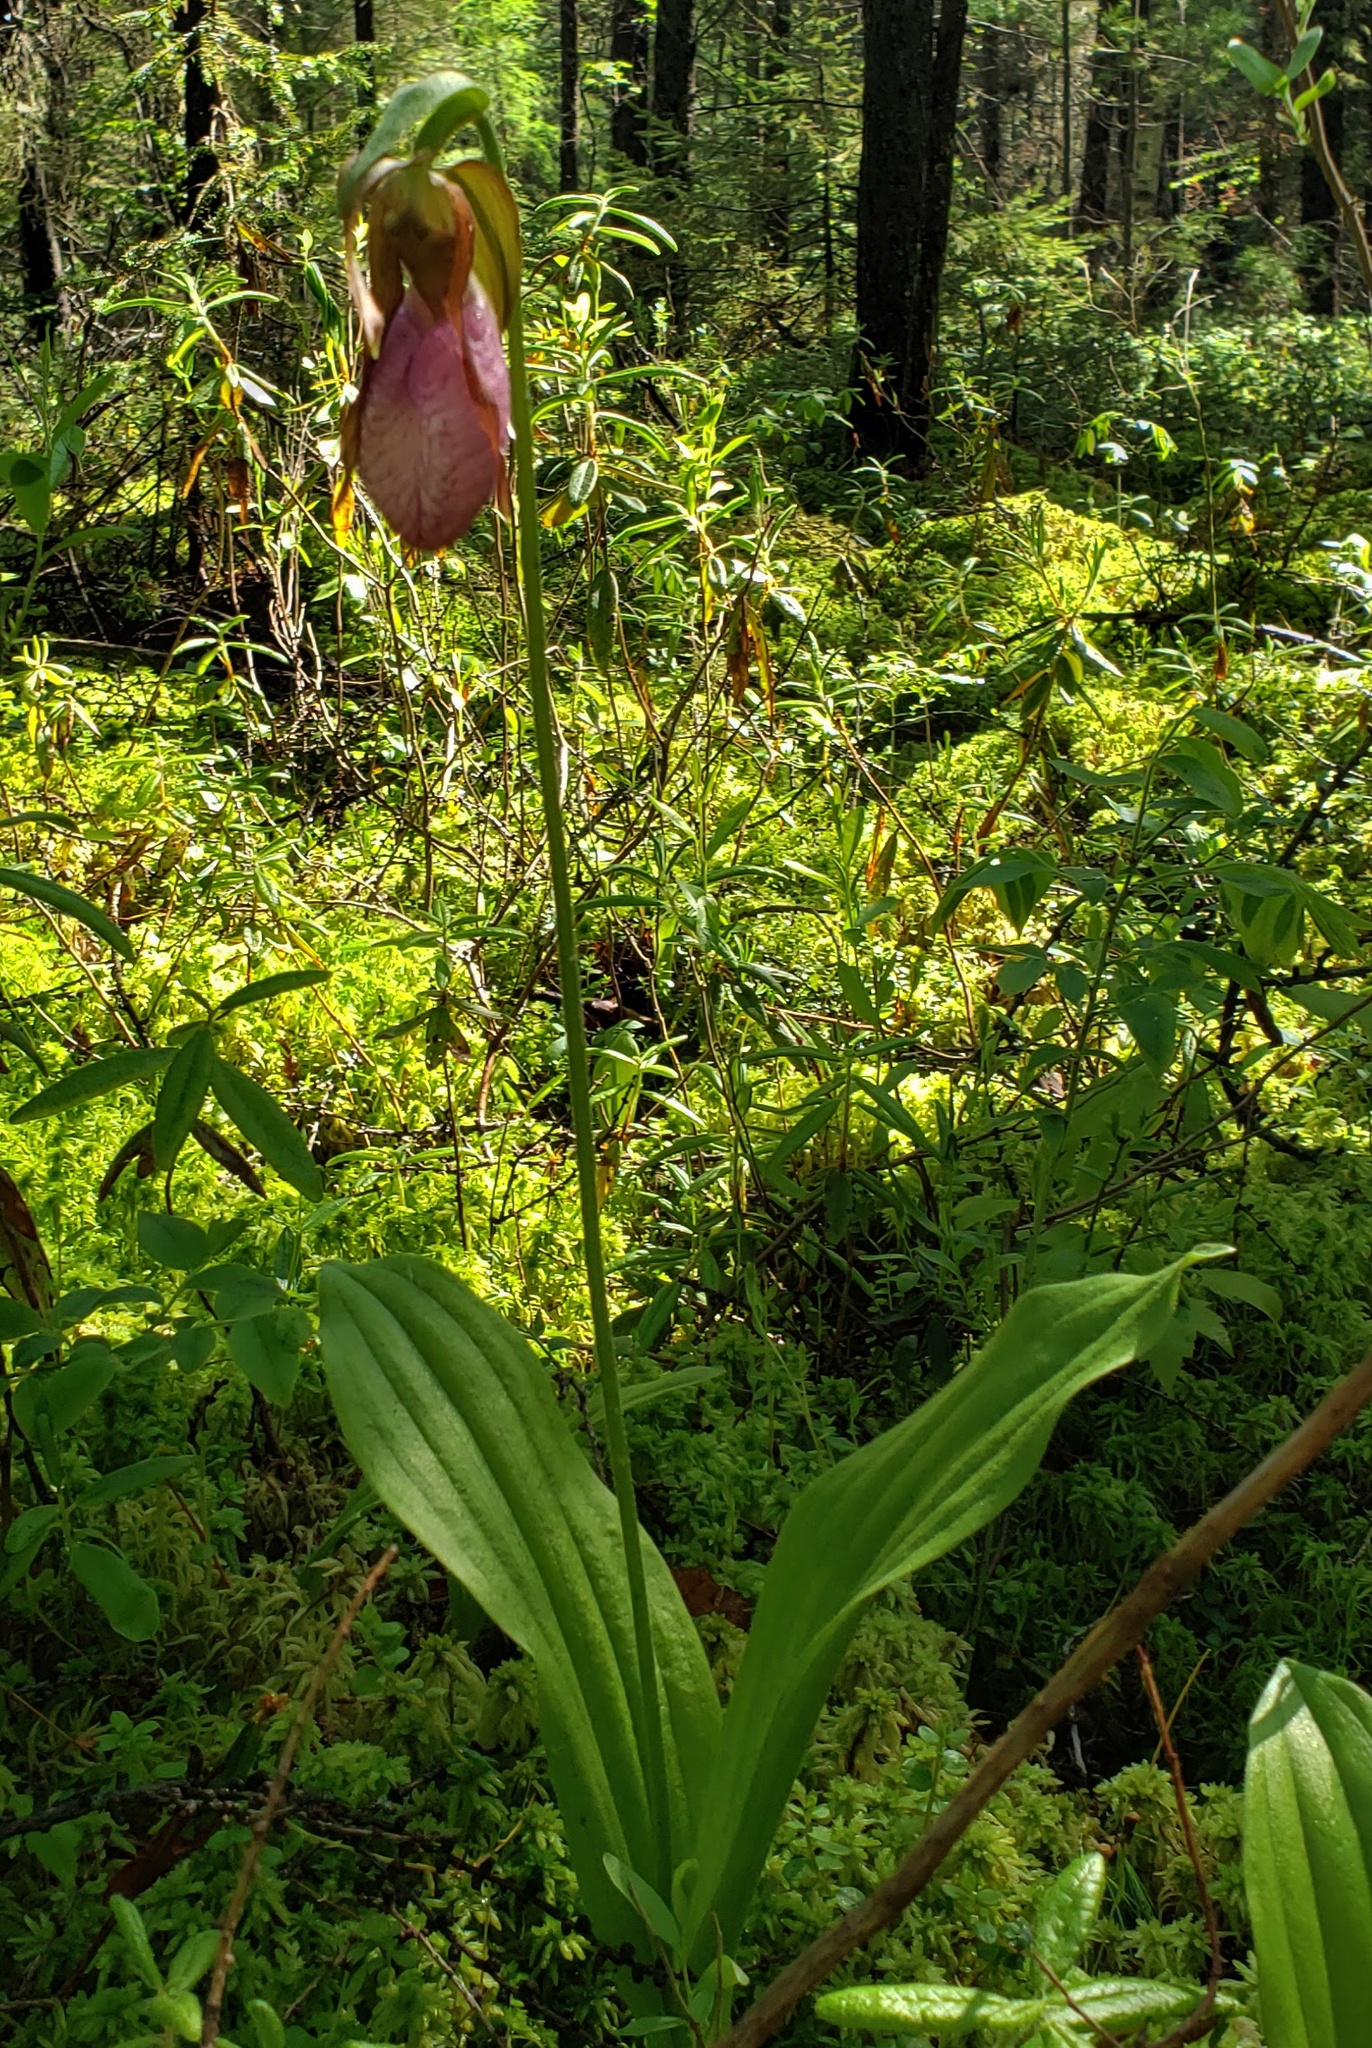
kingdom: Plantae
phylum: Tracheophyta
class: Liliopsida
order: Asparagales
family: Orchidaceae
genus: Cypripedium
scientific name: Cypripedium acaule
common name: Pink lady's-slipper
